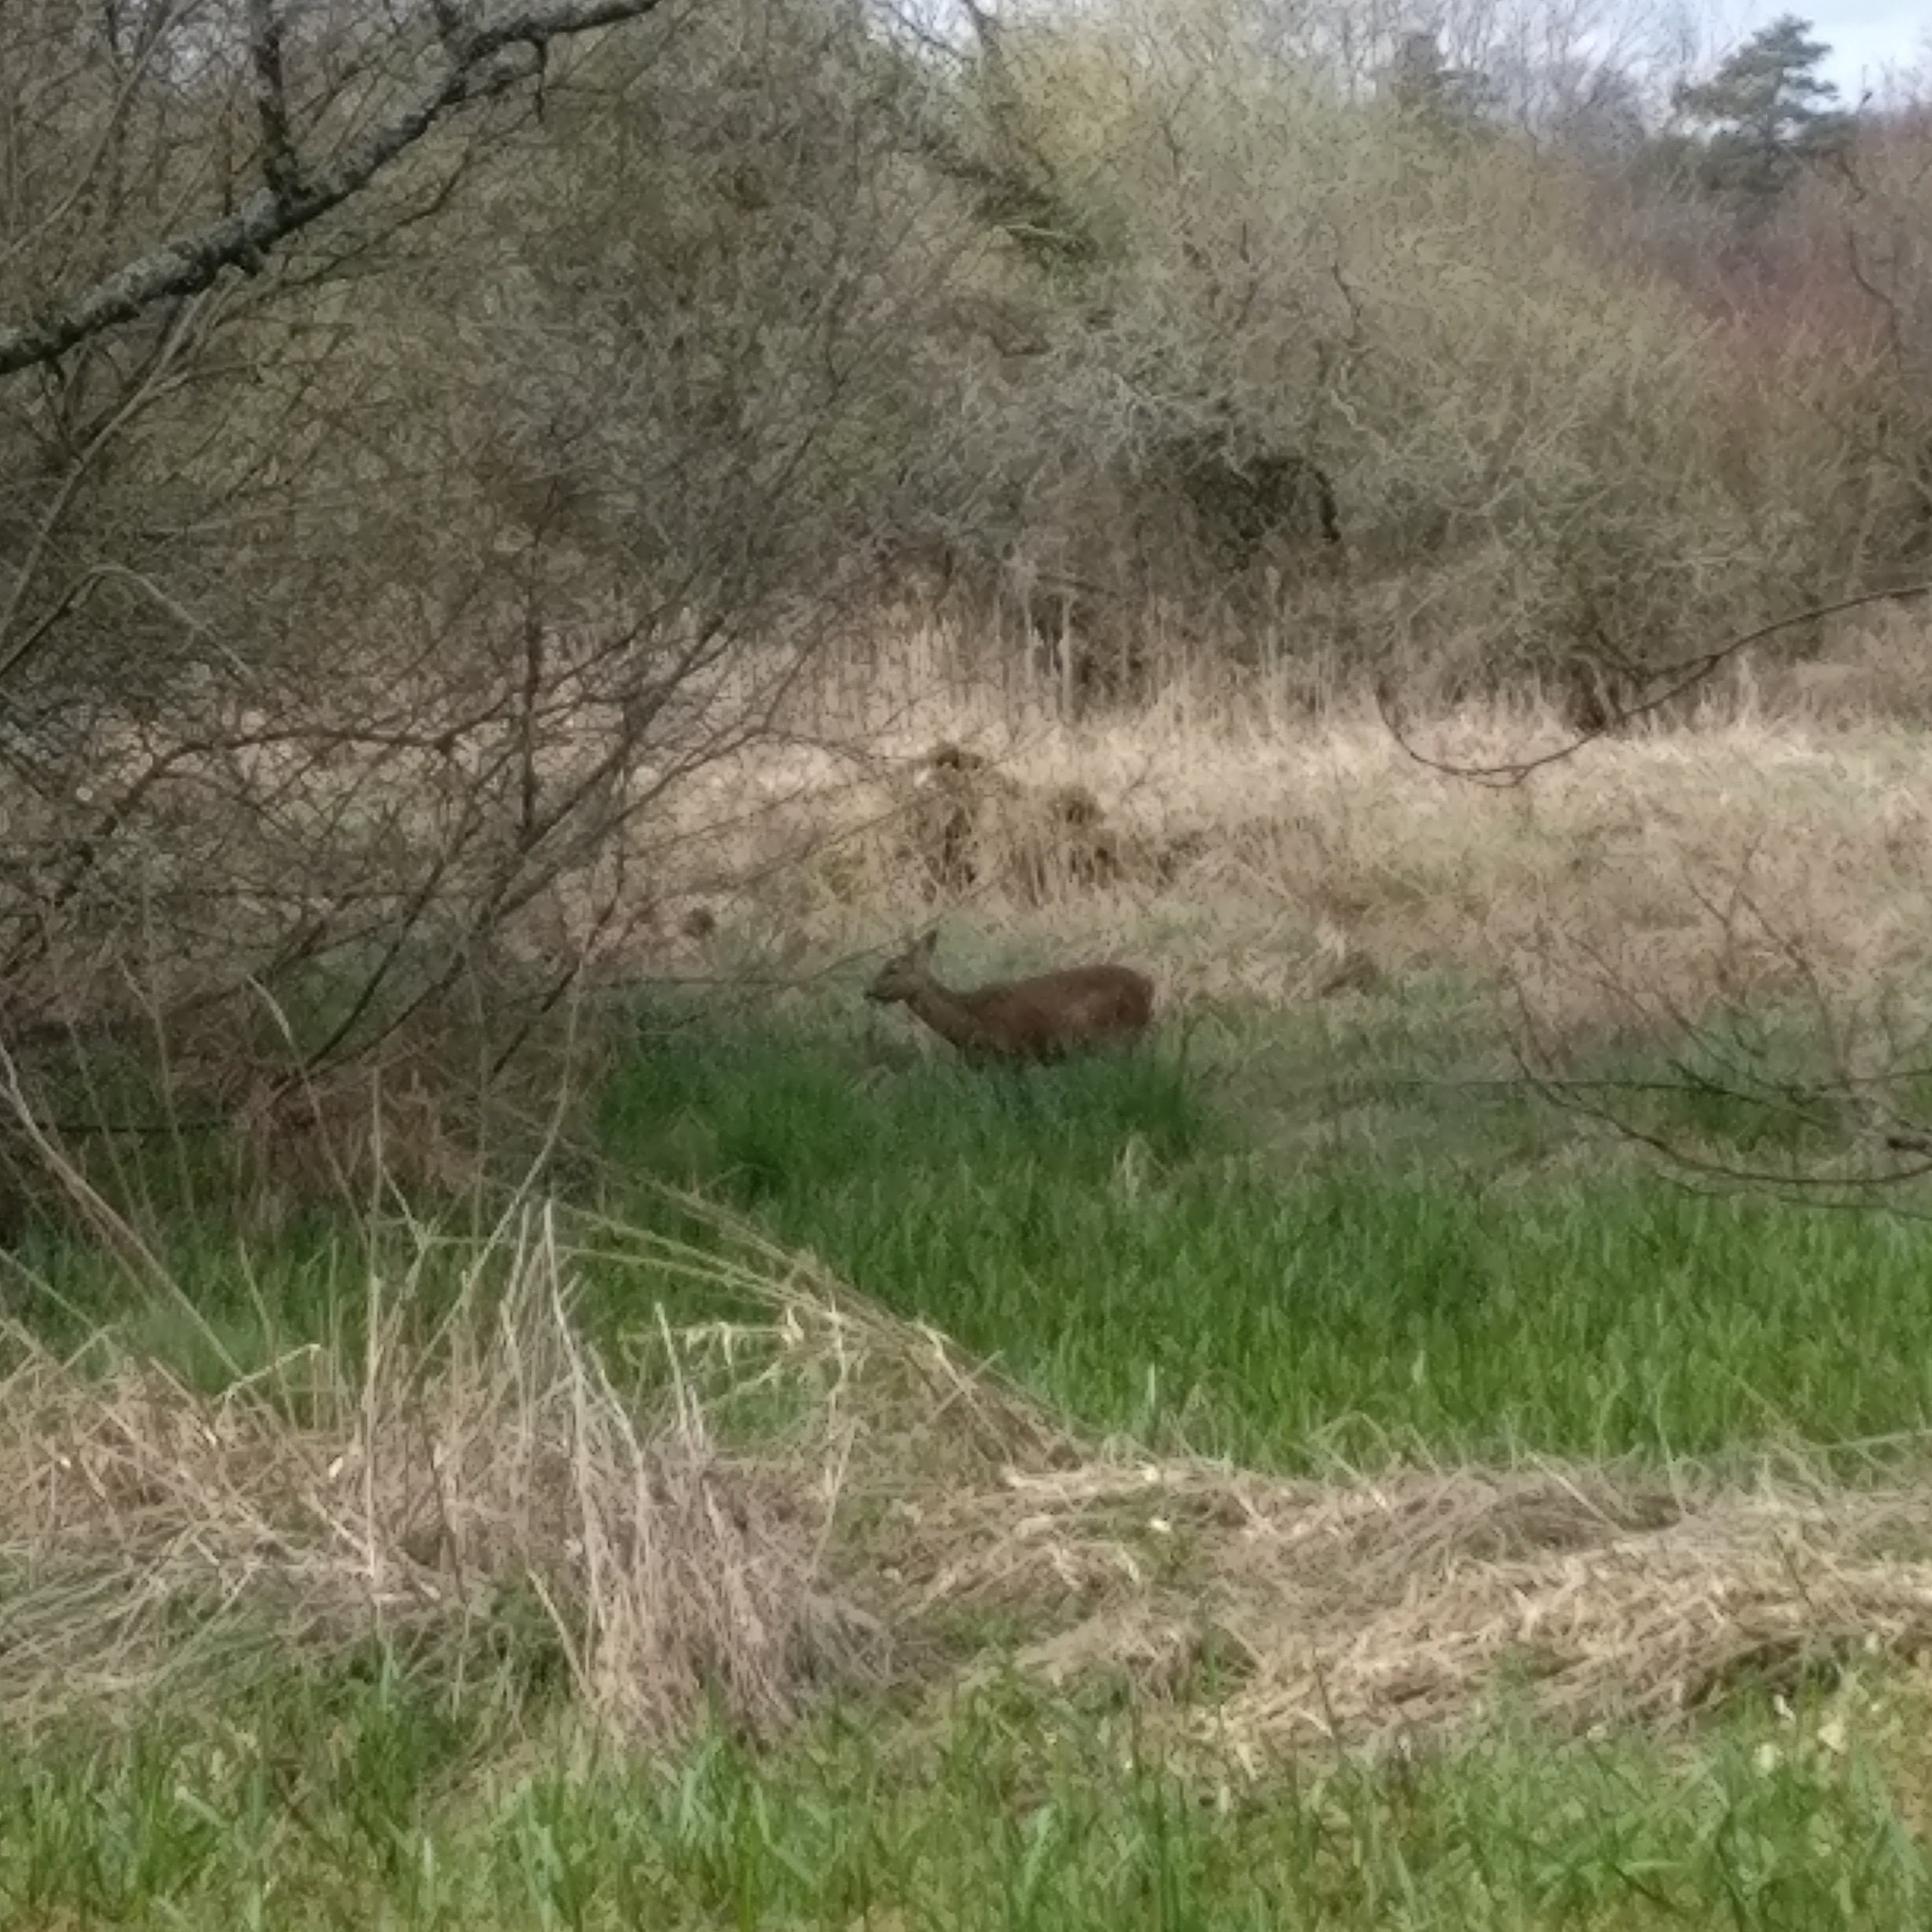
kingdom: Animalia
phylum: Chordata
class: Mammalia
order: Artiodactyla
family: Cervidae
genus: Capreolus
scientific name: Capreolus capreolus
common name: Western roe deer
